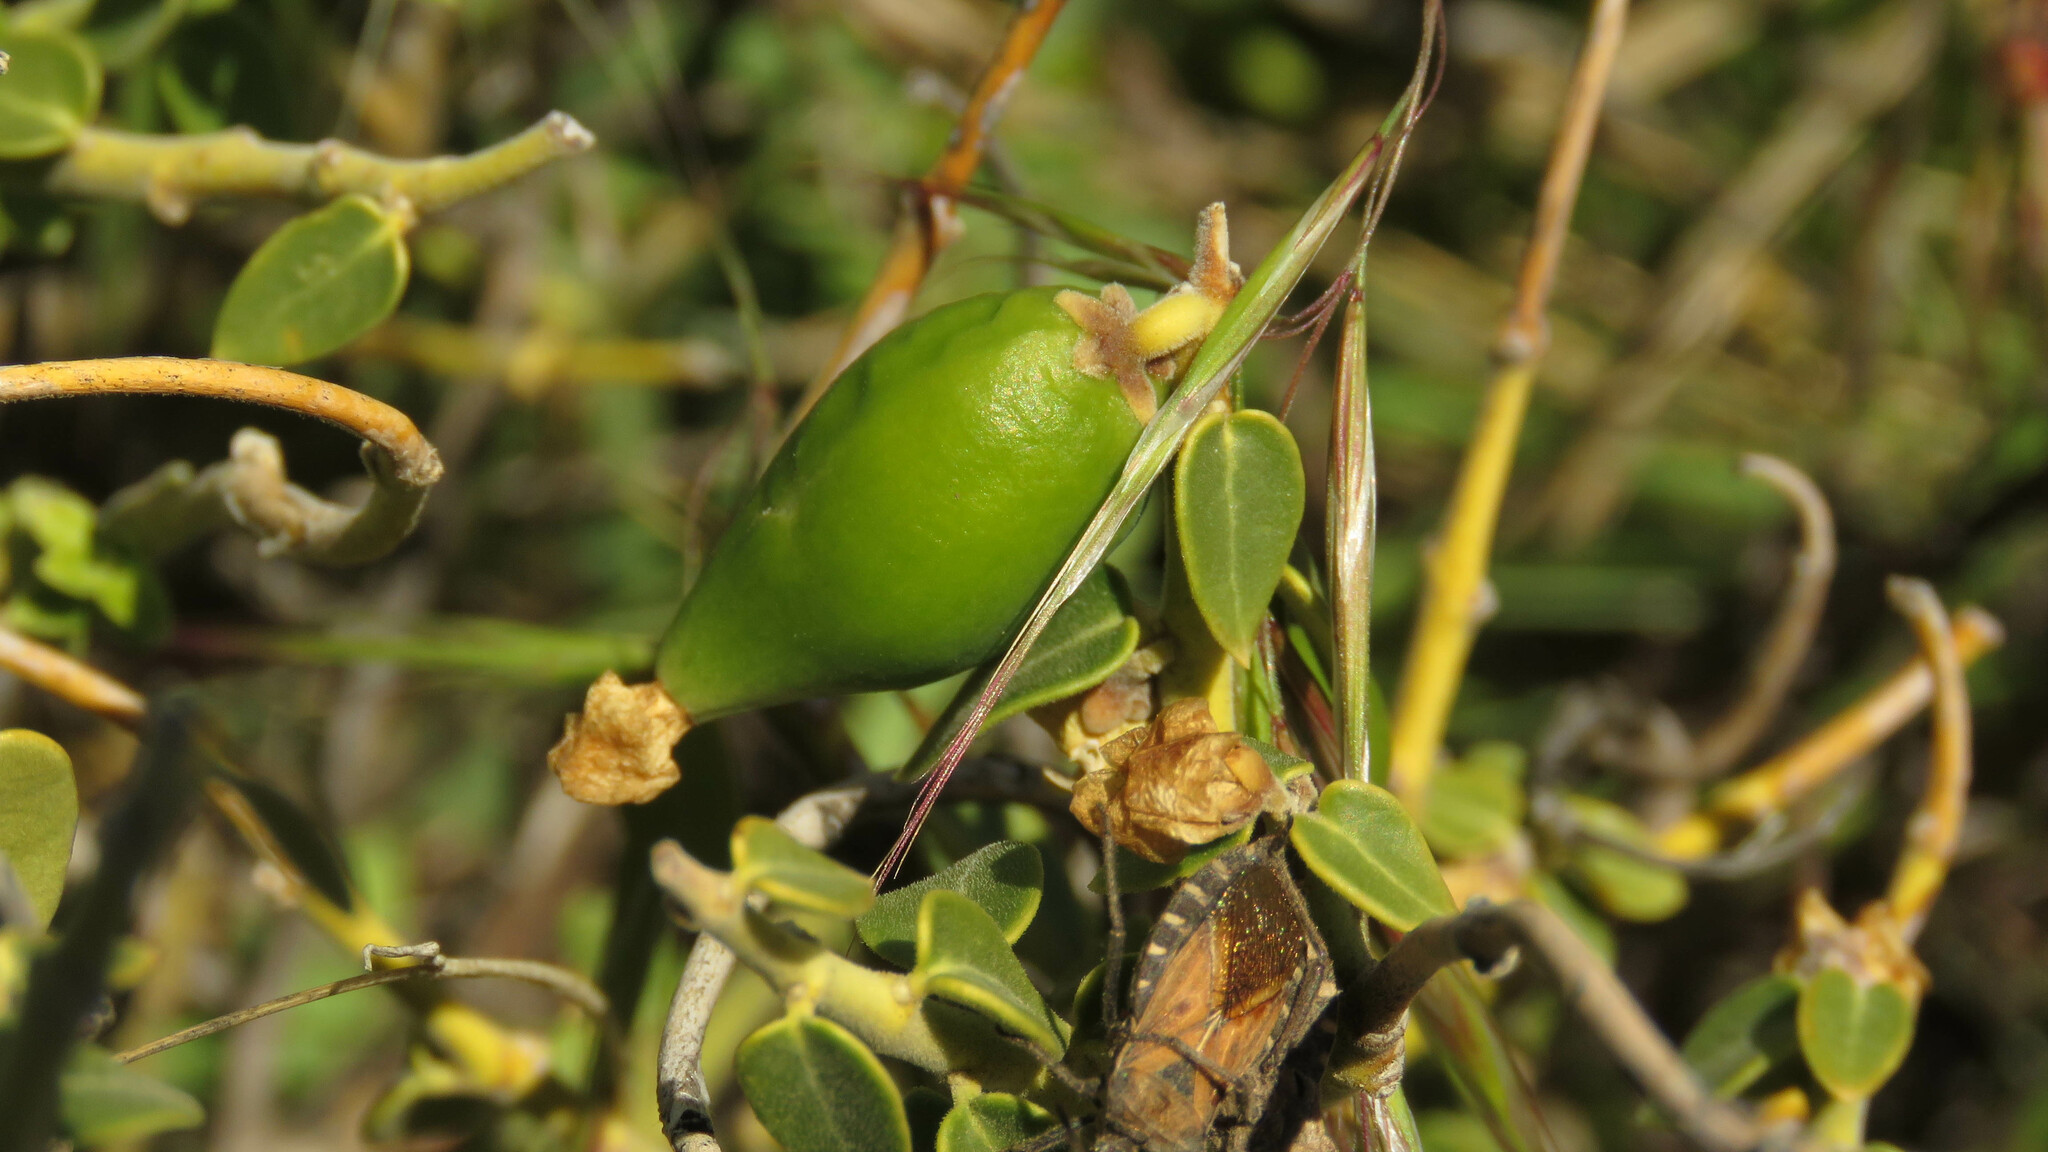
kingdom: Plantae
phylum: Tracheophyta
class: Magnoliopsida
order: Gentianales
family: Apocynaceae
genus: Diplolepis
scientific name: Diplolepis hieronymi
